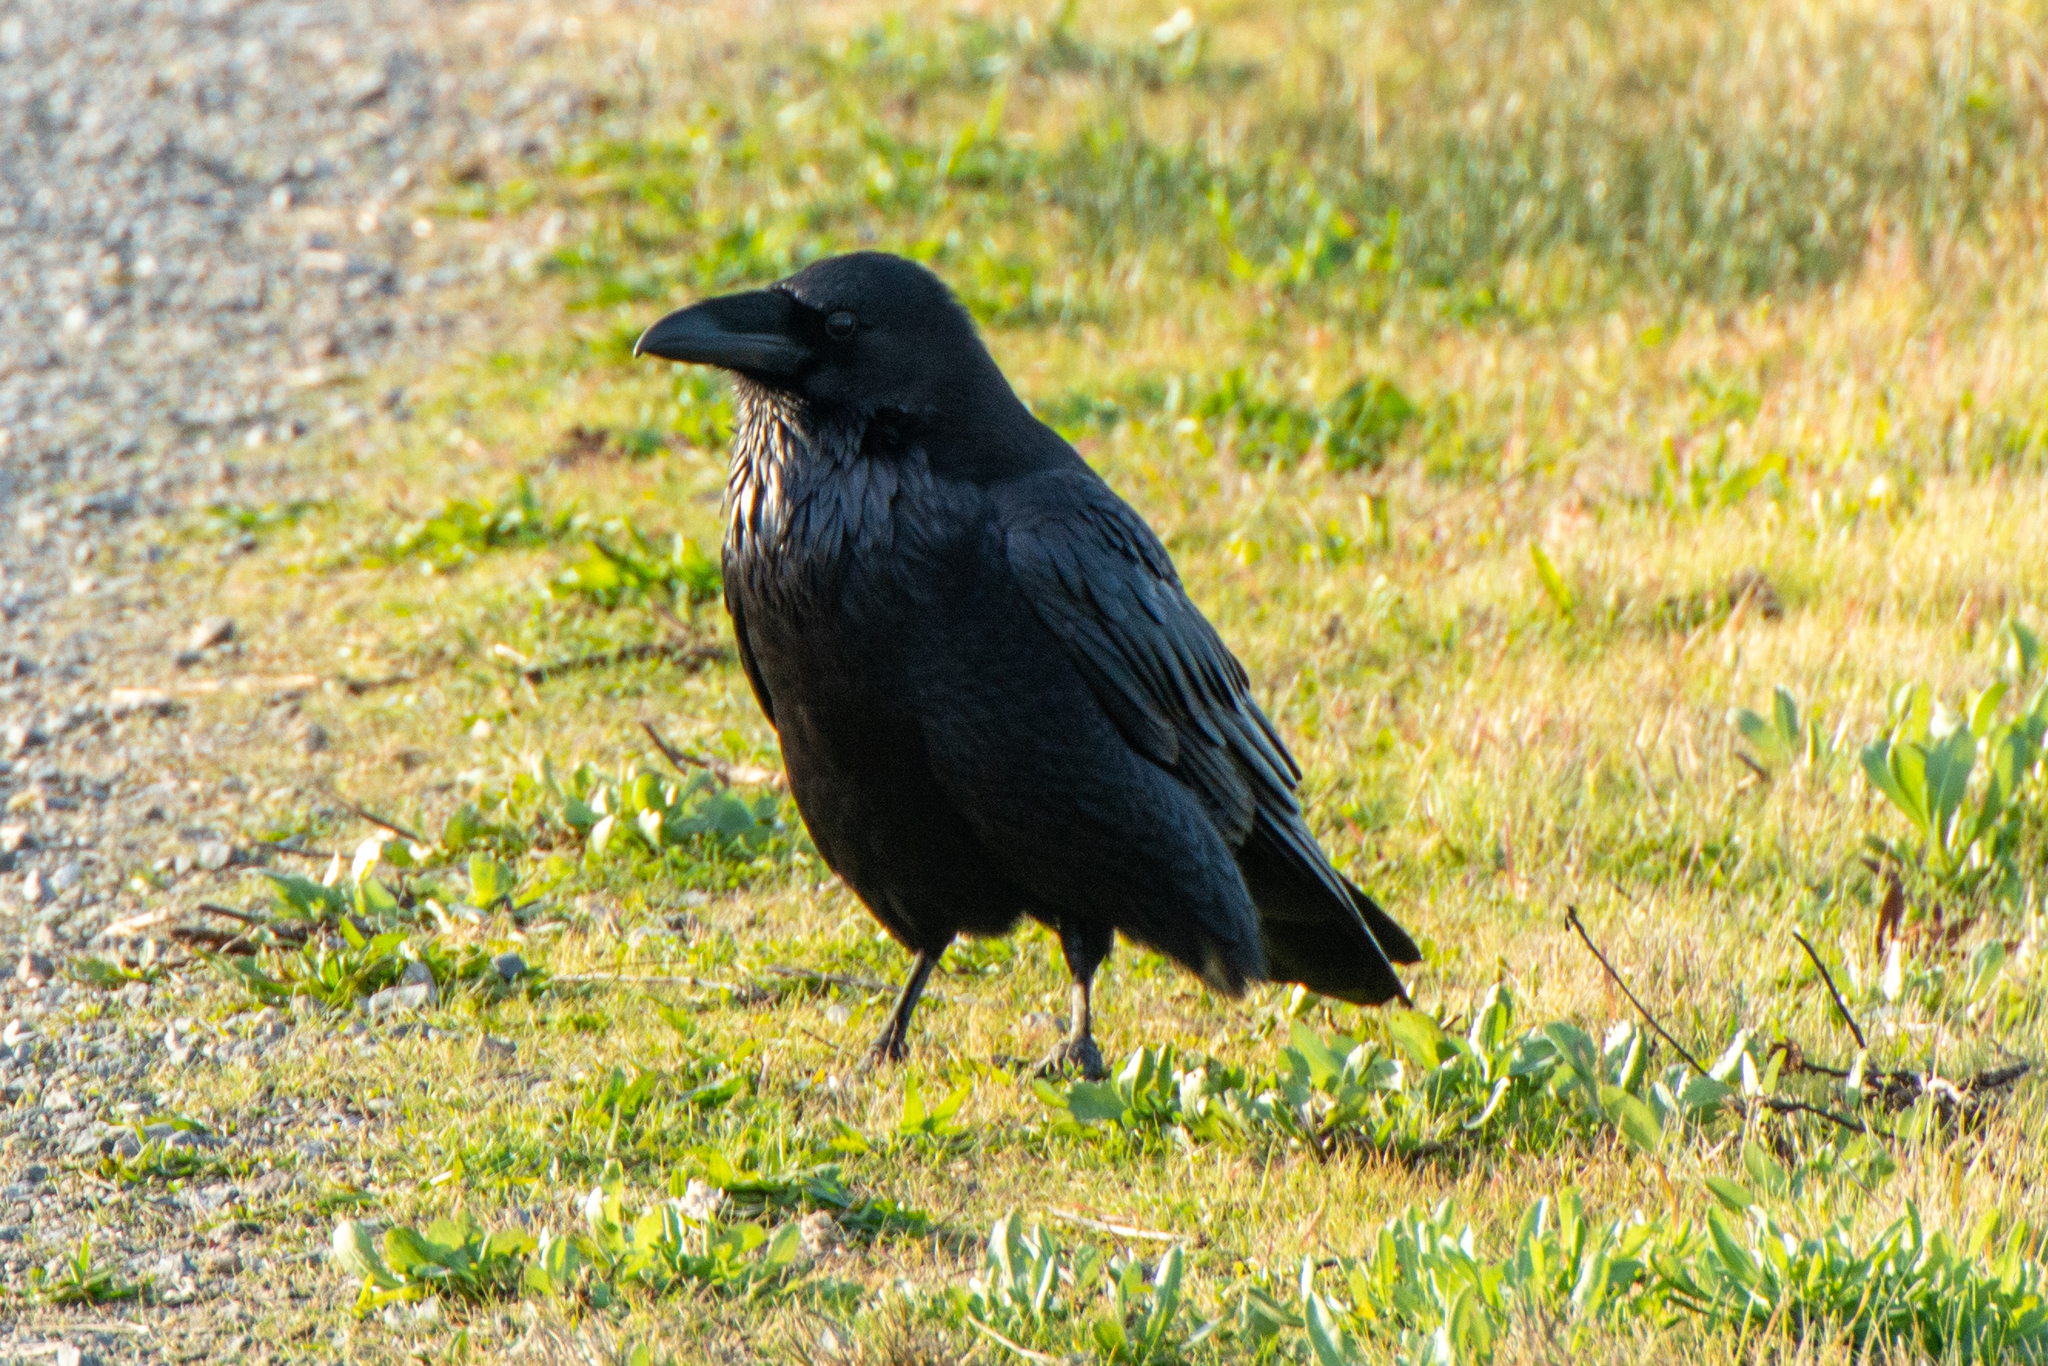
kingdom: Animalia
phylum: Chordata
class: Aves
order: Passeriformes
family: Corvidae
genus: Corvus
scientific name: Corvus corax
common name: Common raven
